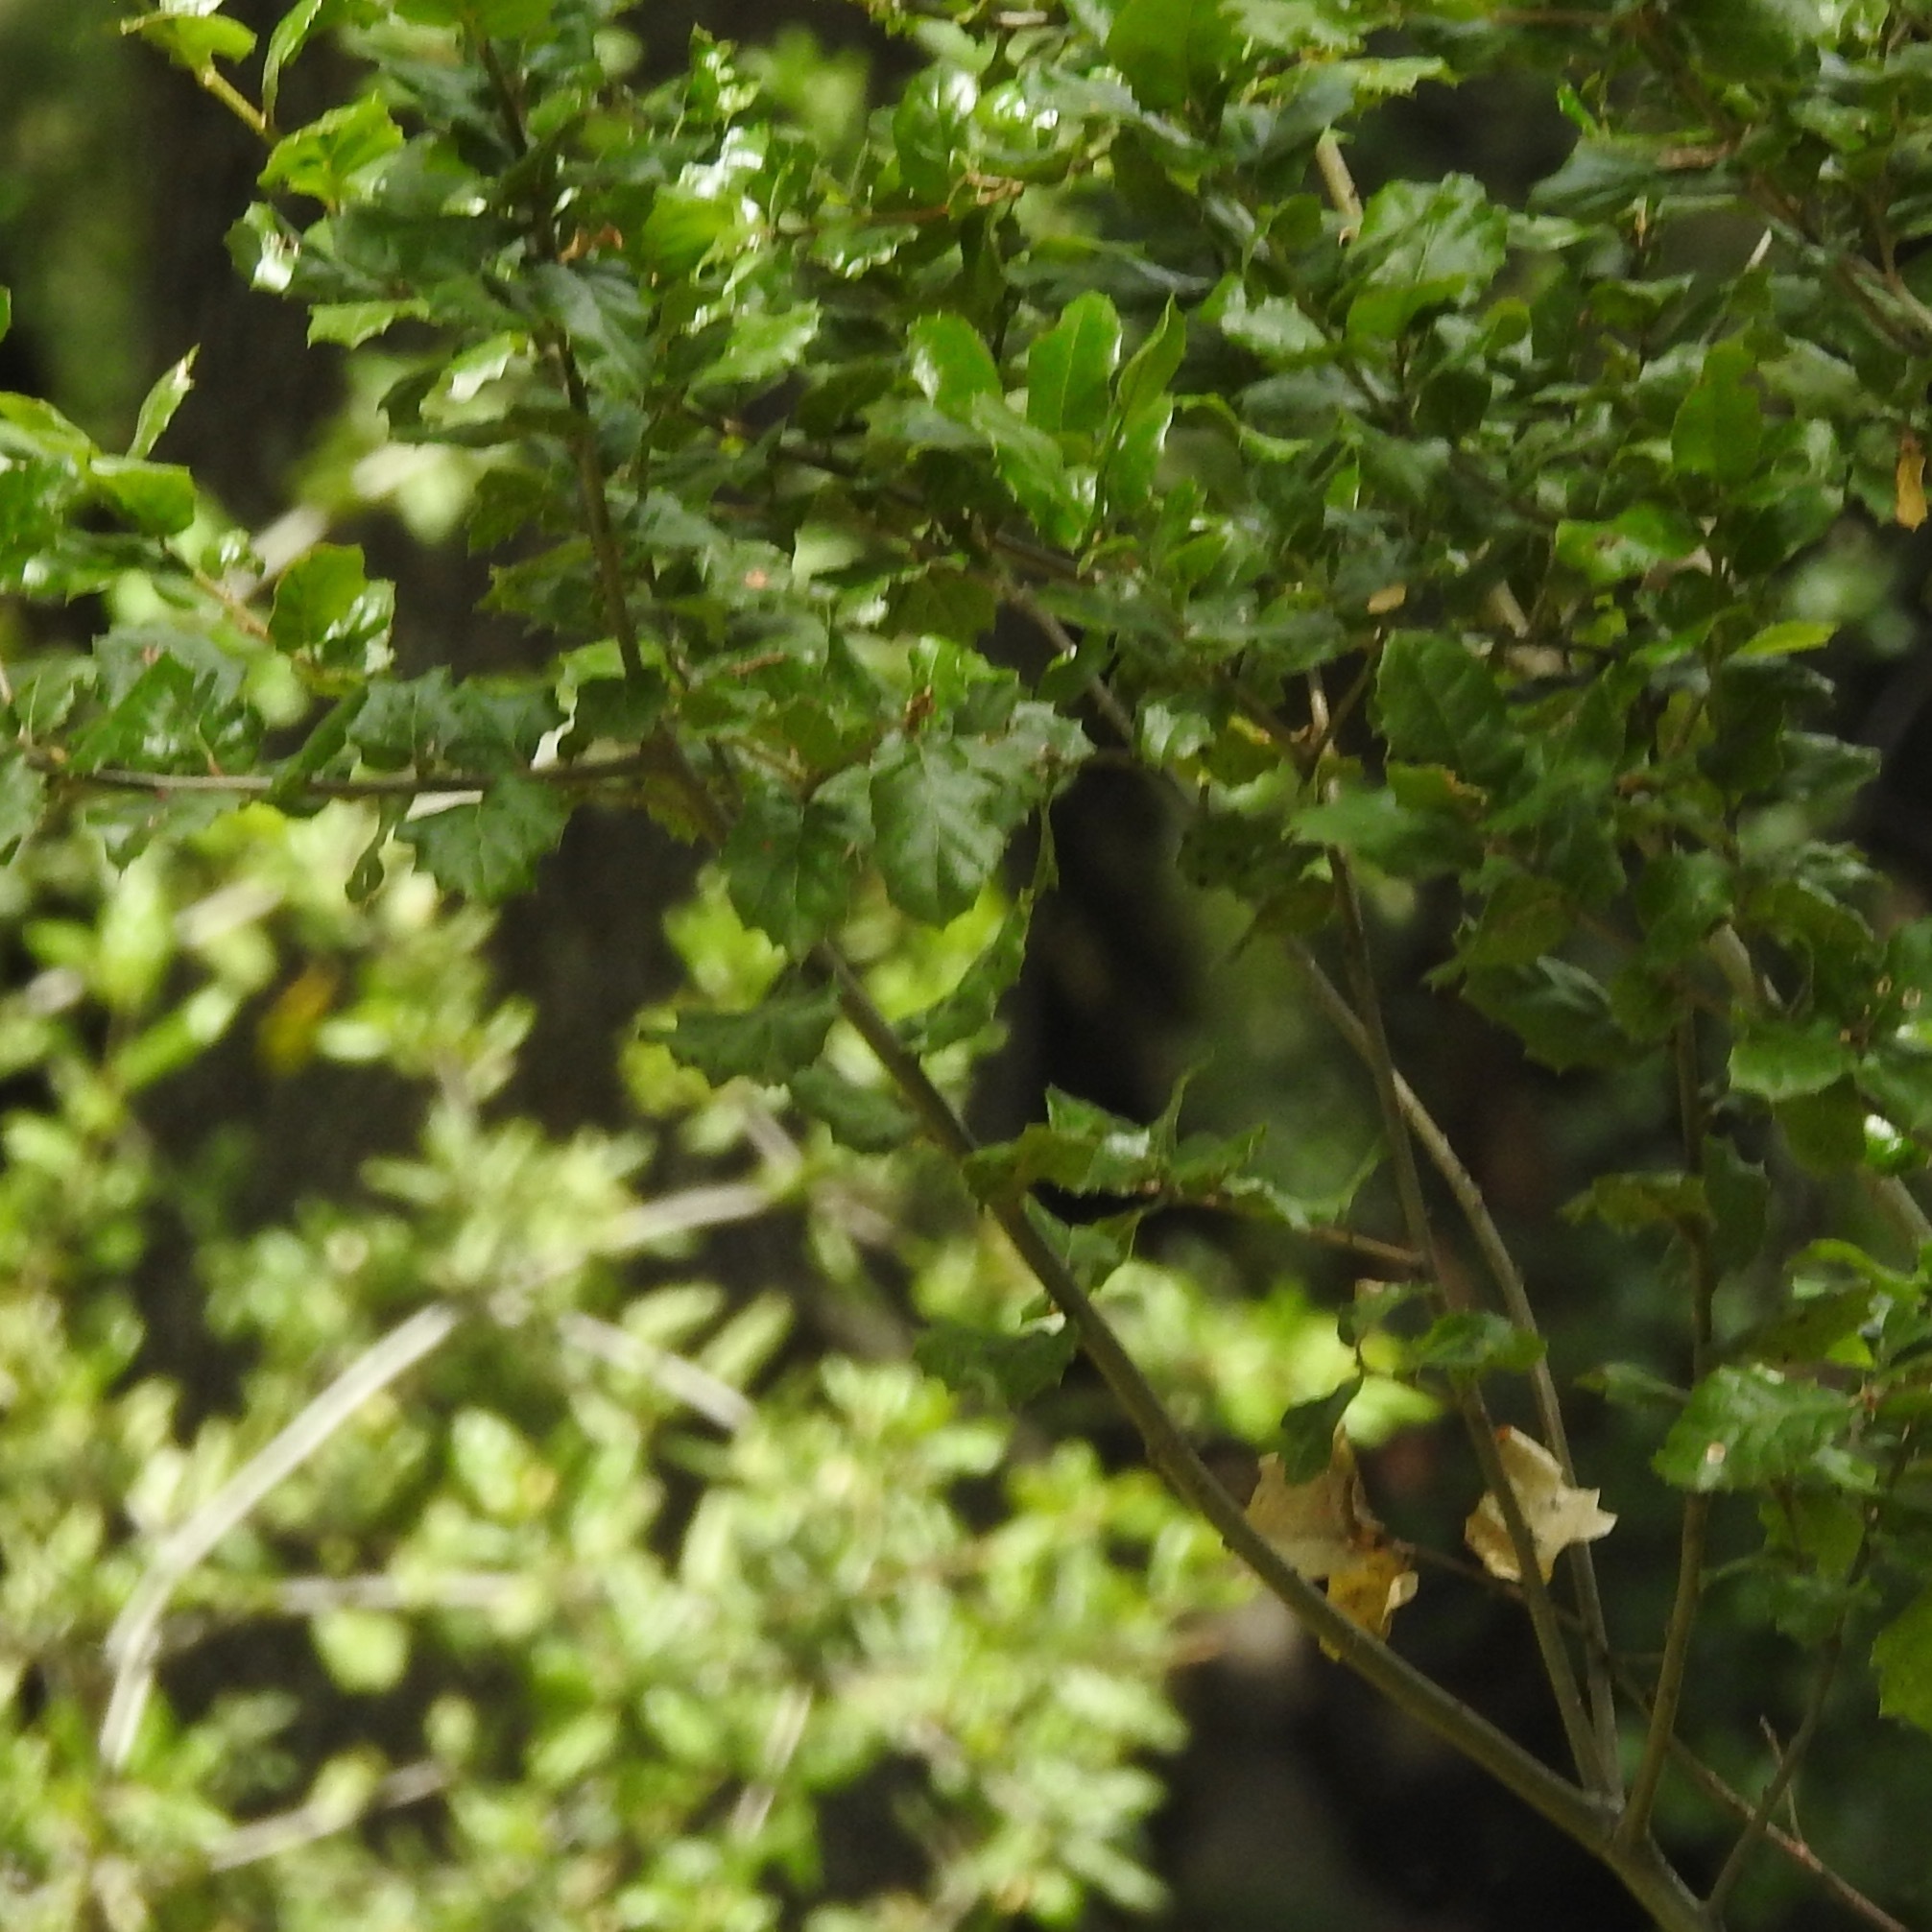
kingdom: Plantae
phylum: Tracheophyta
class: Magnoliopsida
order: Fagales
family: Fagaceae
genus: Quercus
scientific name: Quercus agrifolia
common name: California live oak
